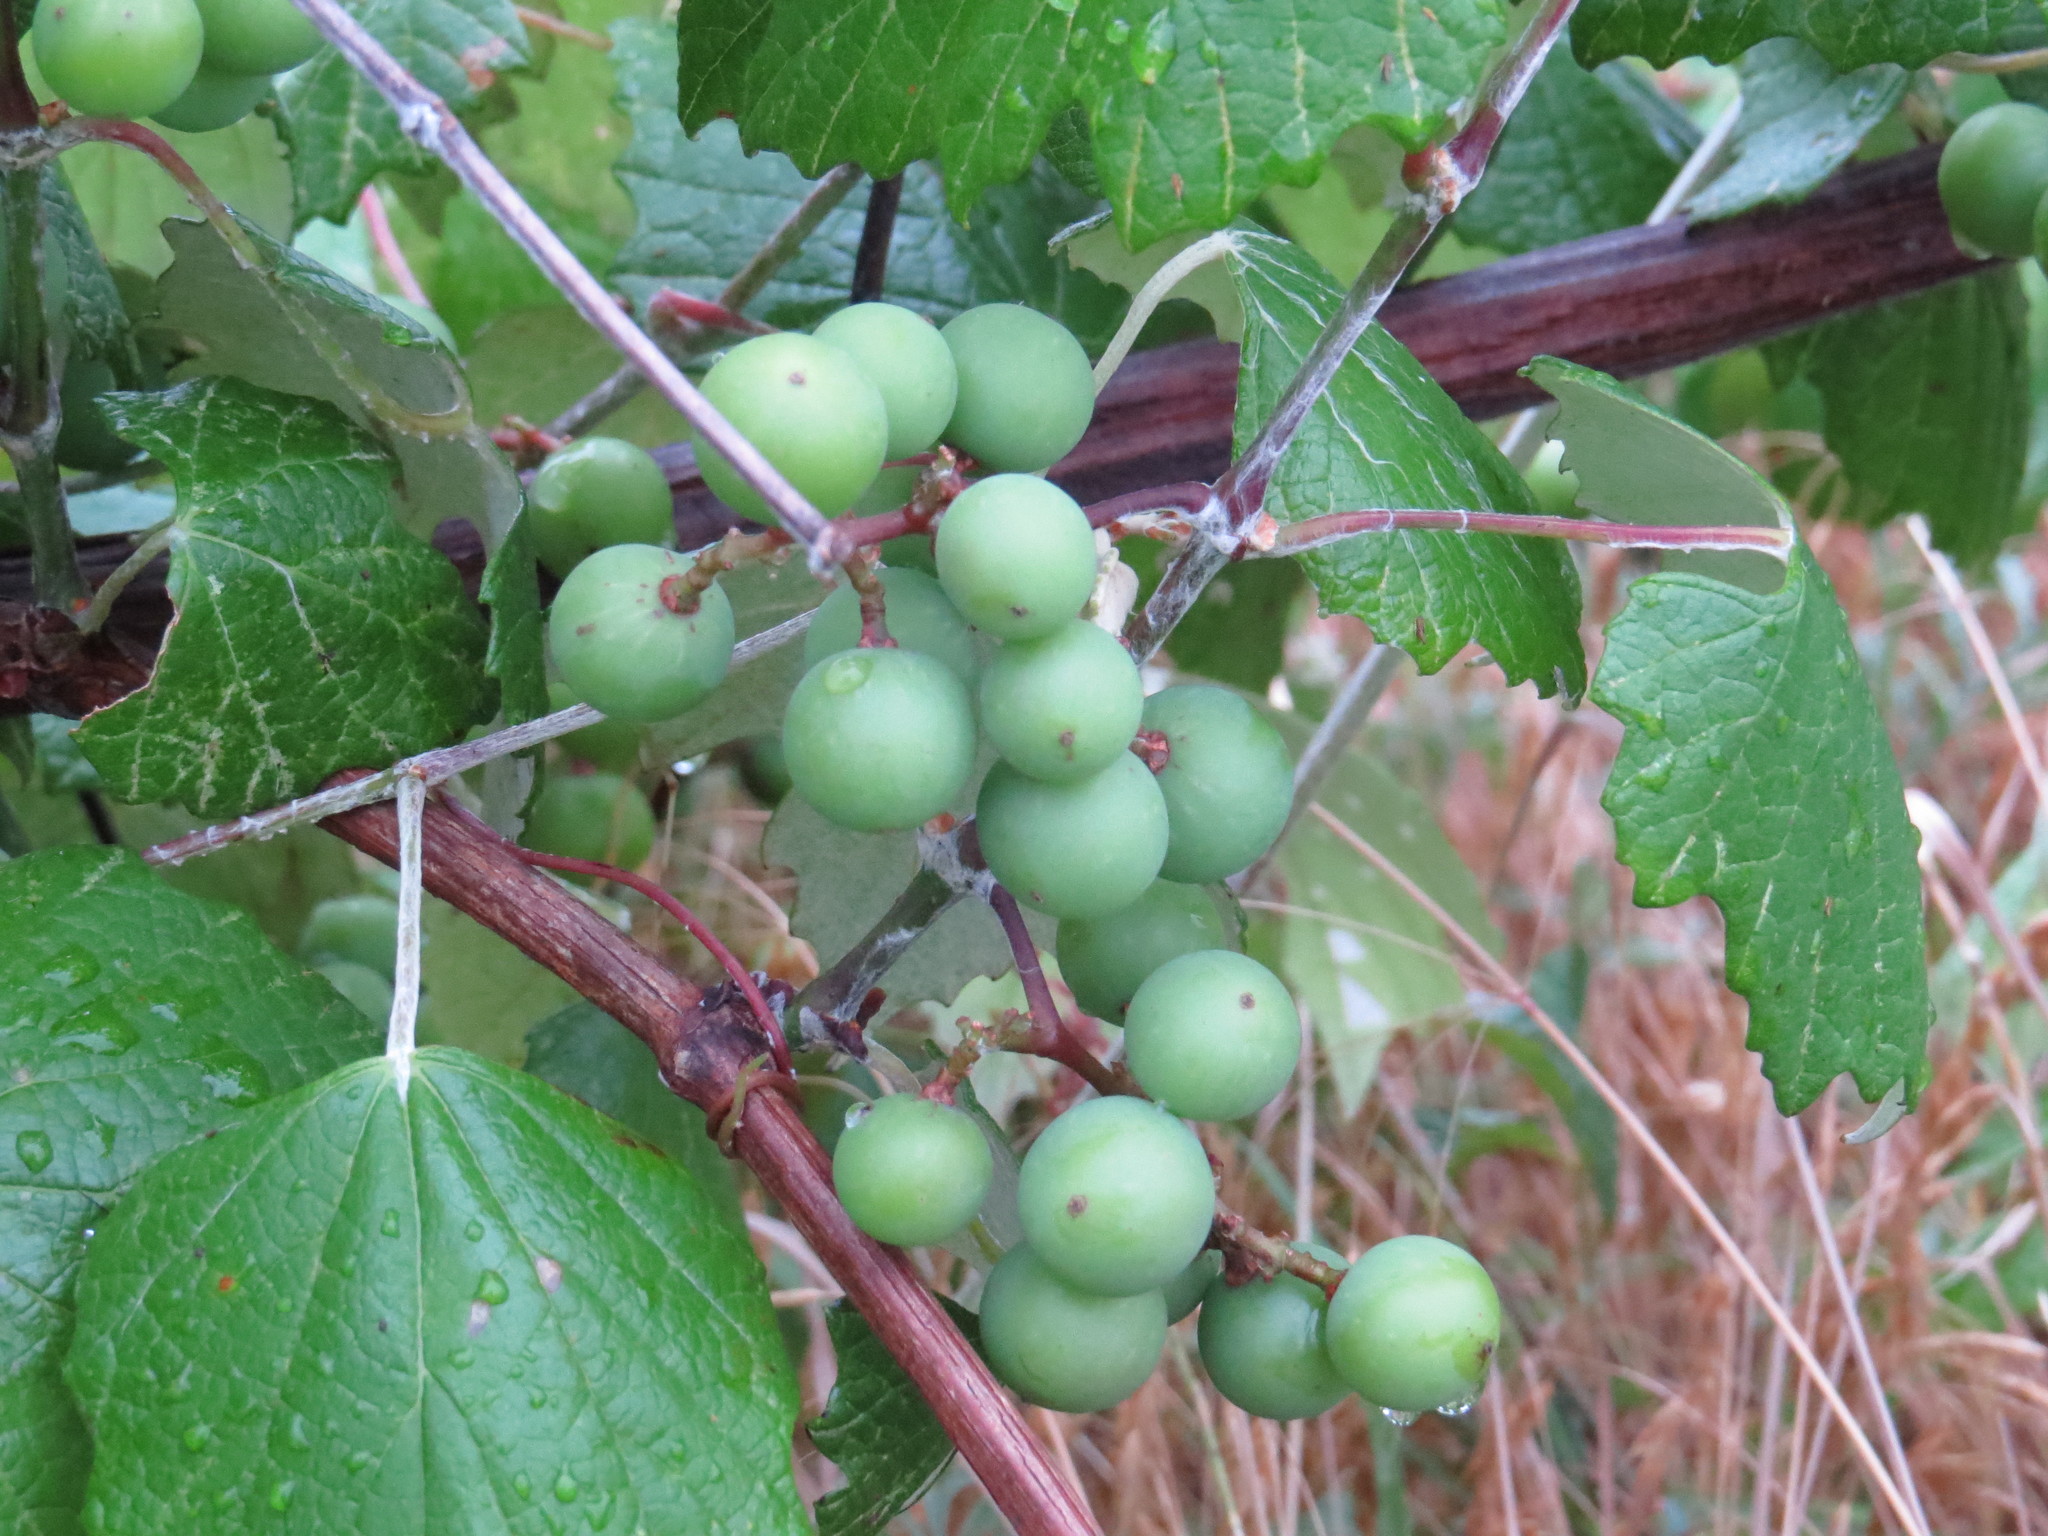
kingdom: Plantae
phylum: Tracheophyta
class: Magnoliopsida
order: Vitales
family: Vitaceae
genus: Vitis
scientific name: Vitis mustangensis
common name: Mustang grape
